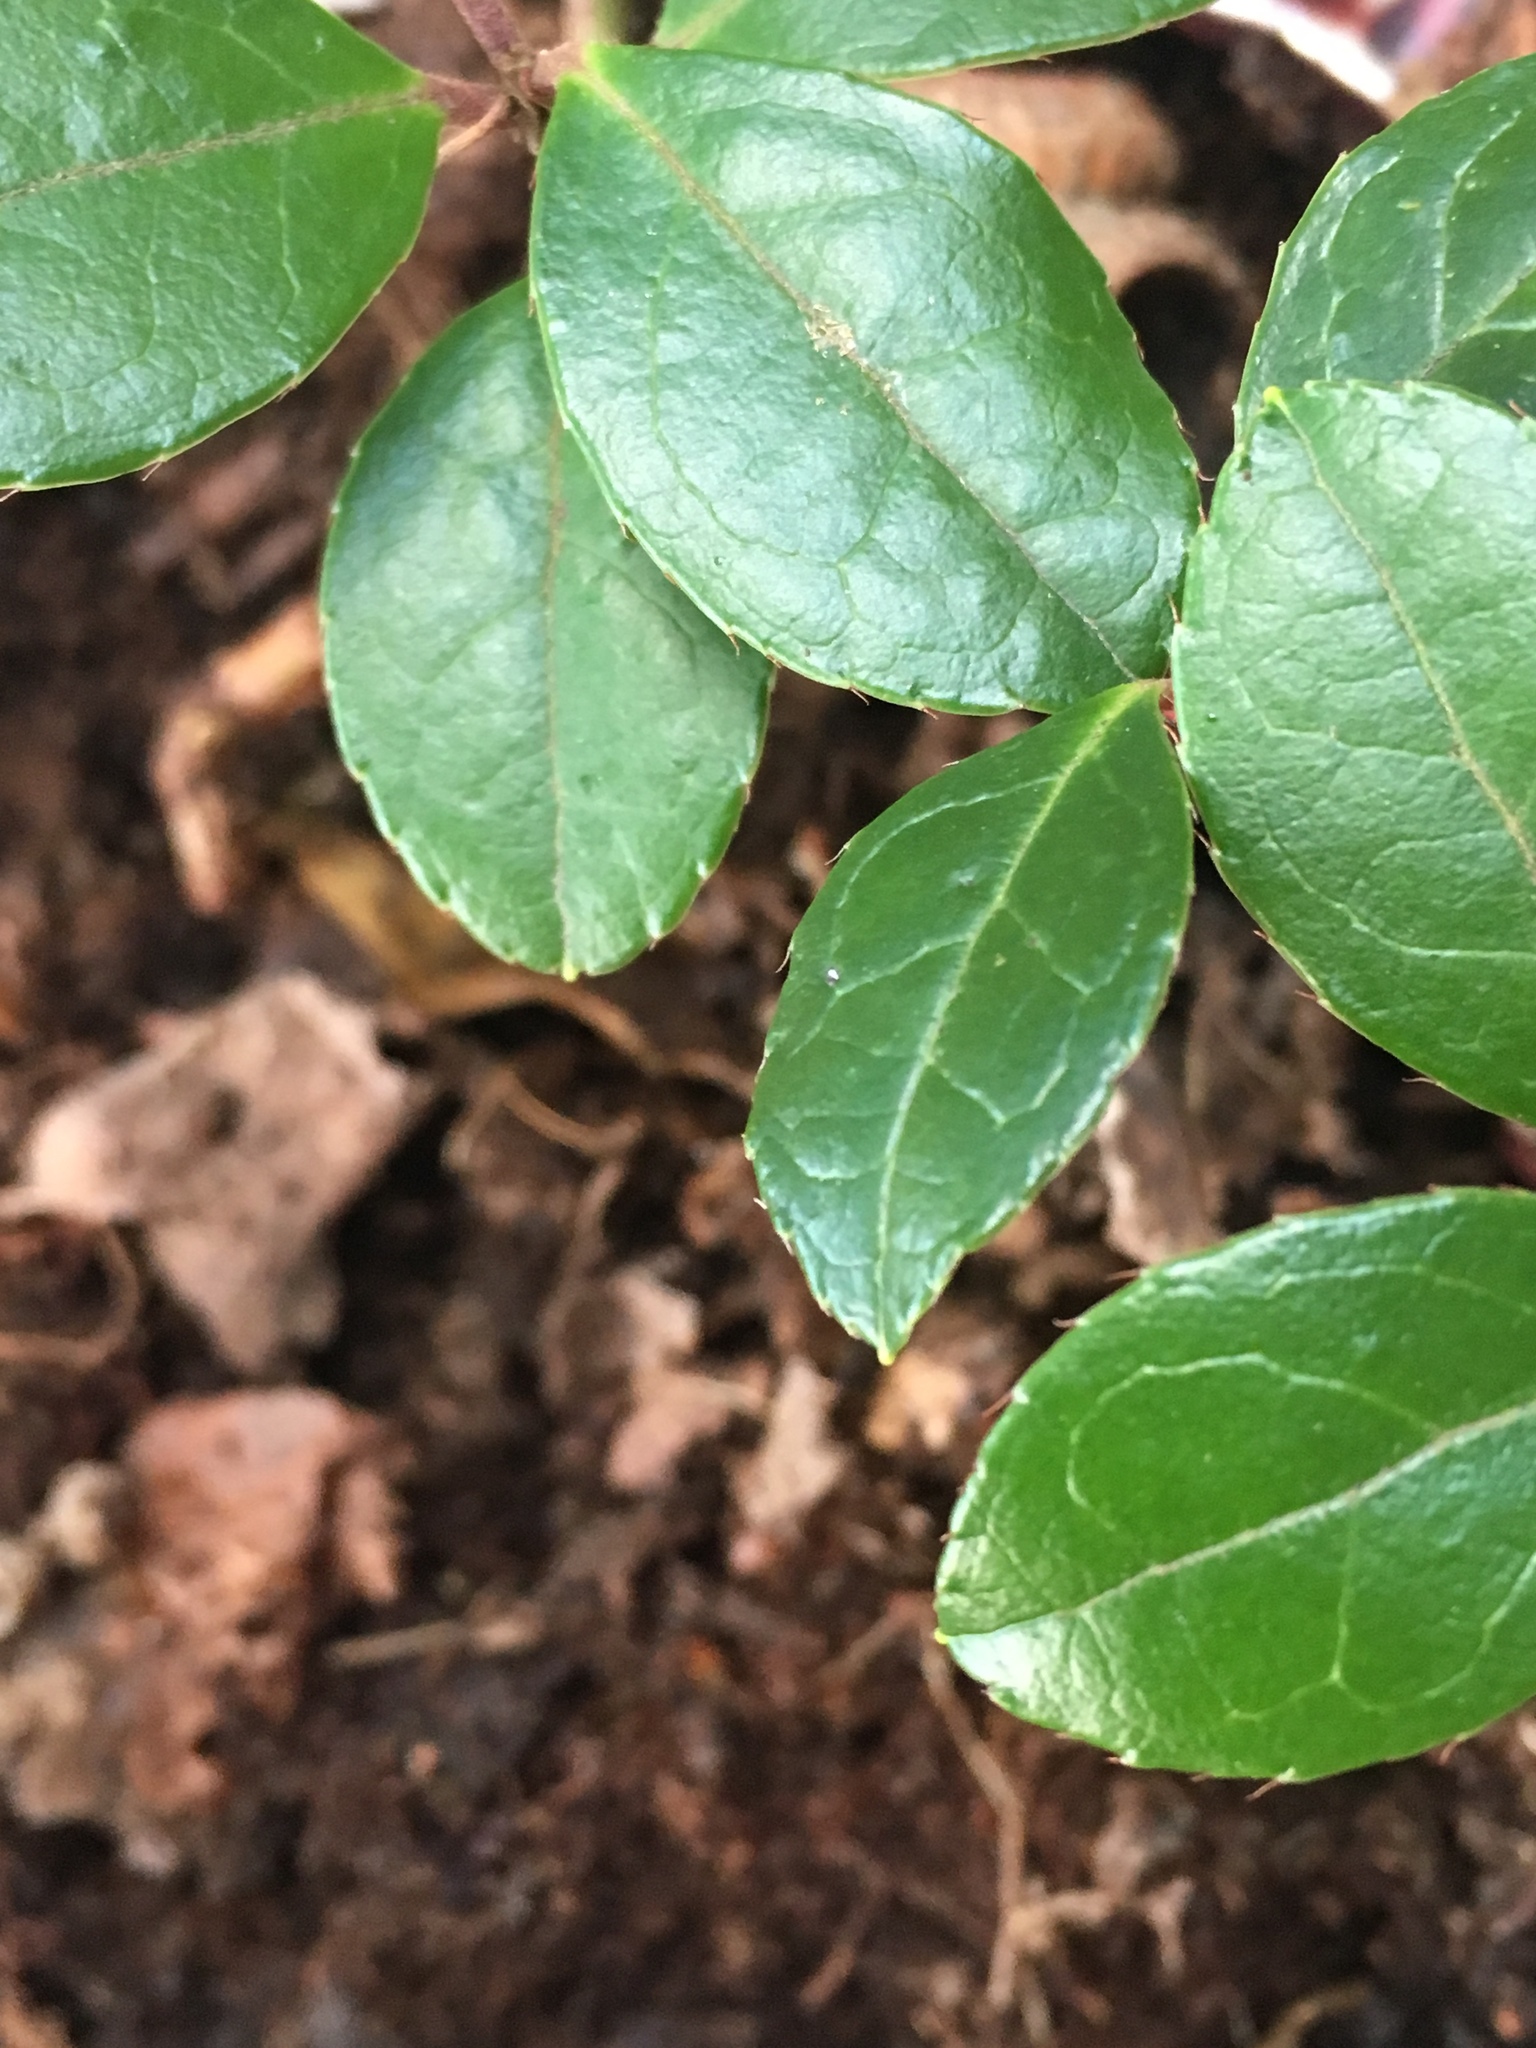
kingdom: Plantae
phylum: Tracheophyta
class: Magnoliopsida
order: Ericales
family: Ericaceae
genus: Gaultheria
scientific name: Gaultheria procumbens
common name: Checkerberry
